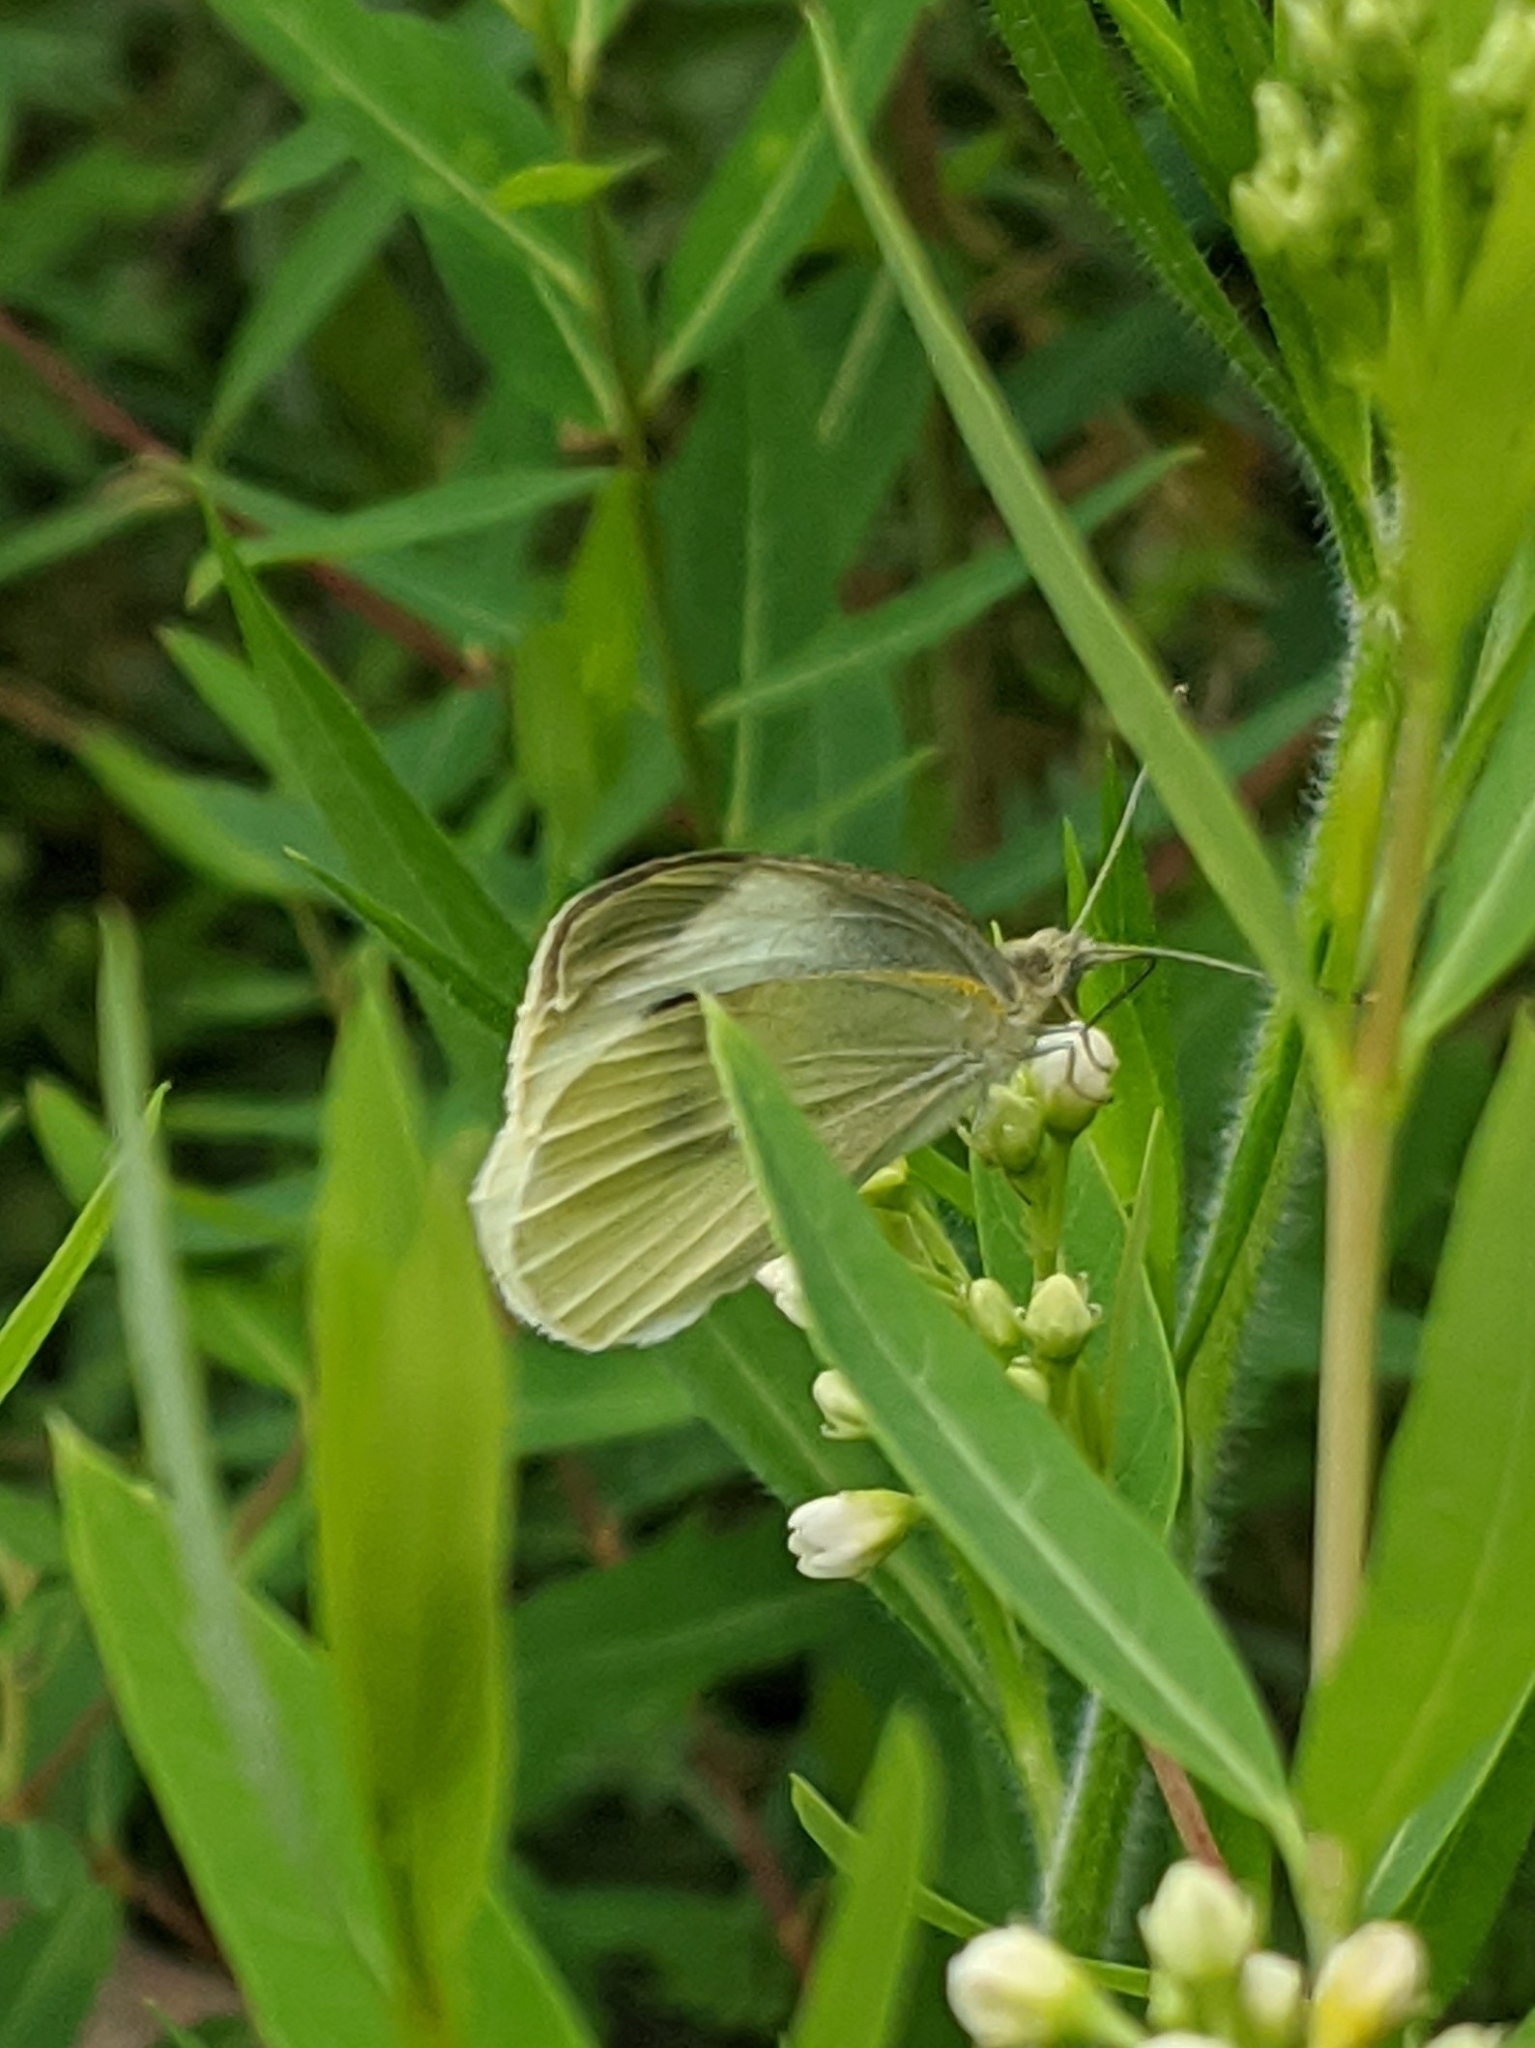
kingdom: Animalia
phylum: Arthropoda
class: Insecta
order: Lepidoptera
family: Pieridae
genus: Pieris
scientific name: Pieris rapae
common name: Small white
